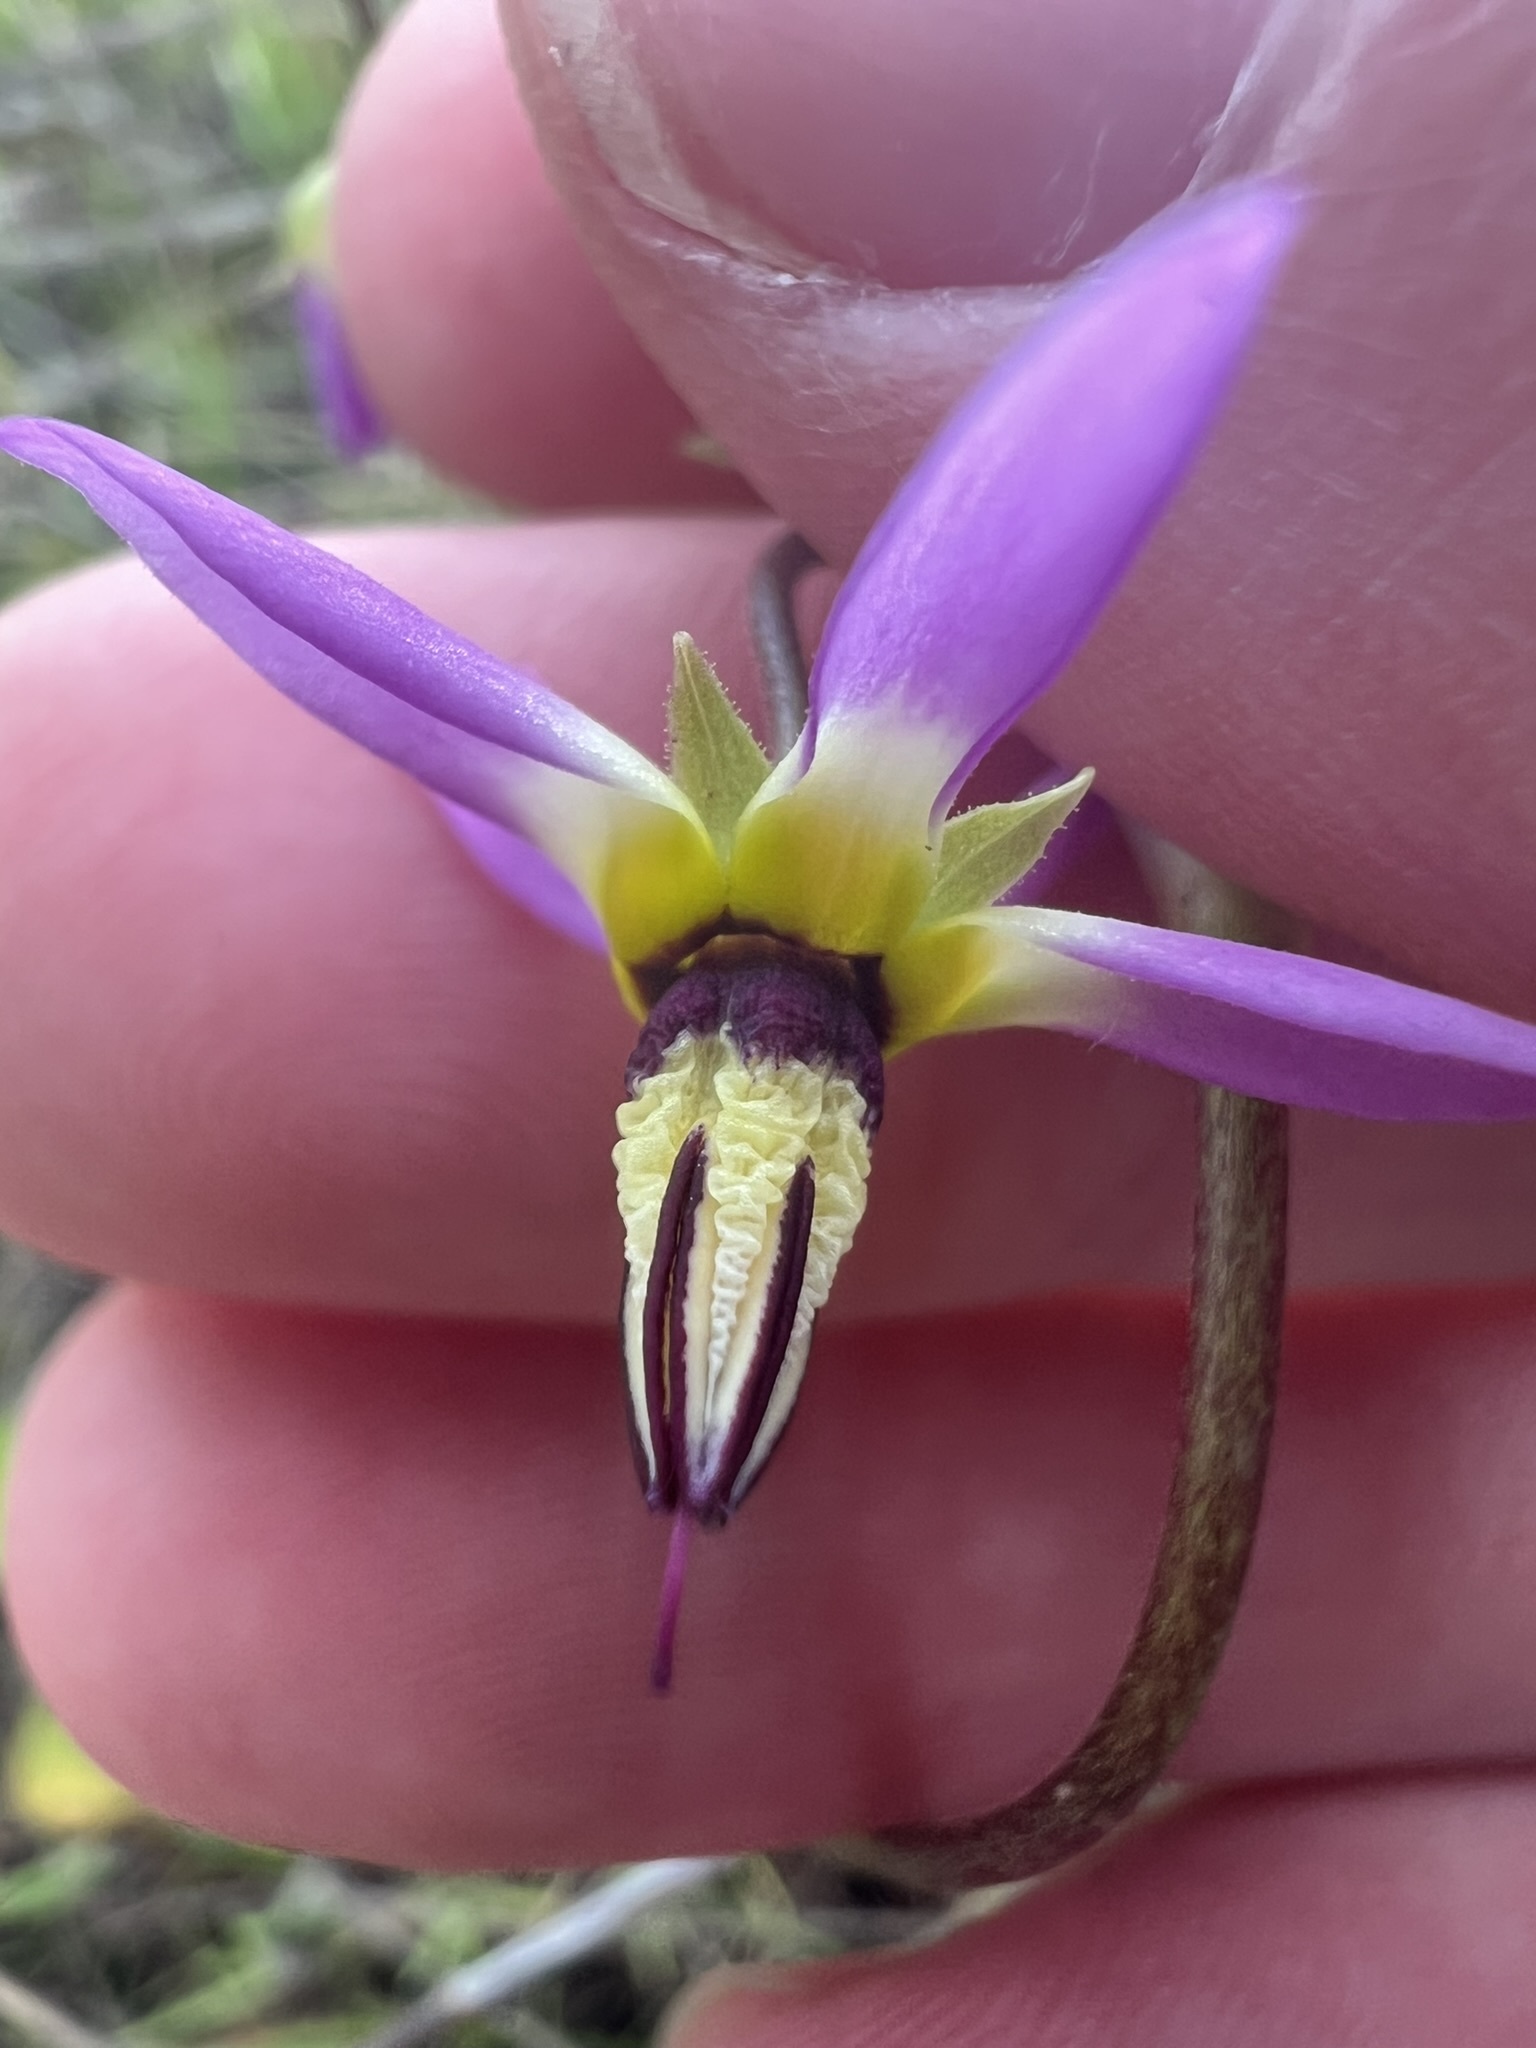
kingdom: Plantae
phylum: Tracheophyta
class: Magnoliopsida
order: Ericales
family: Primulaceae
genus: Dodecatheon
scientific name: Dodecatheon clevelandii
